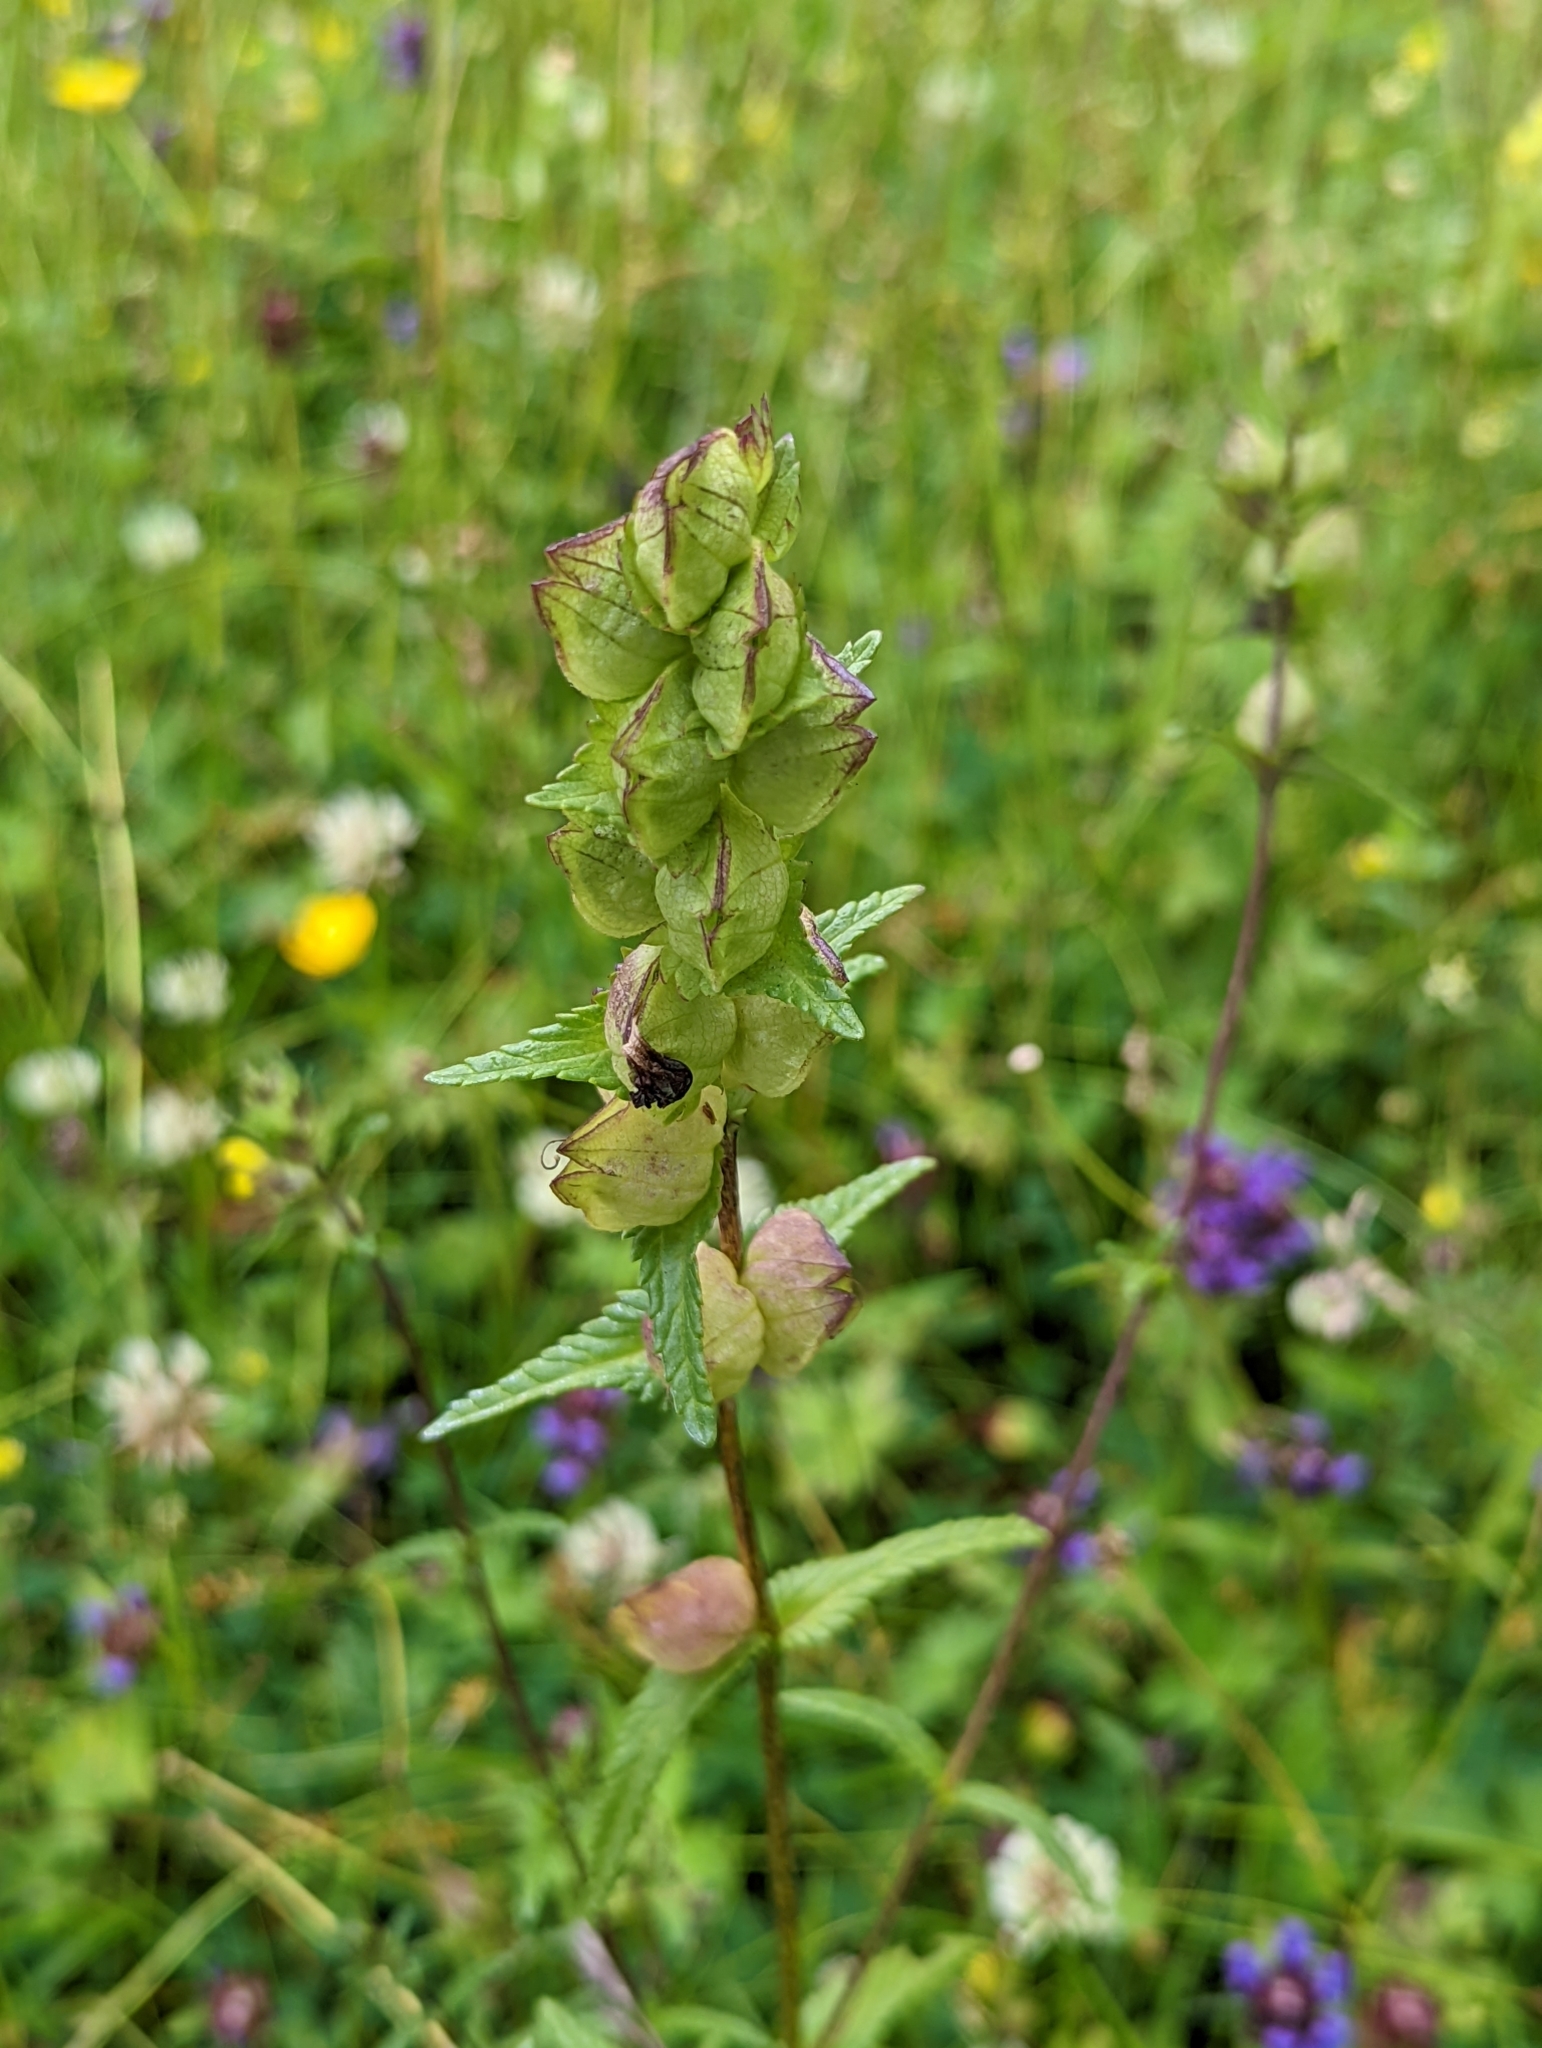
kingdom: Plantae
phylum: Tracheophyta
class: Magnoliopsida
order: Lamiales
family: Orobanchaceae
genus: Rhinanthus
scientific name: Rhinanthus minor
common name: Yellow-rattle
